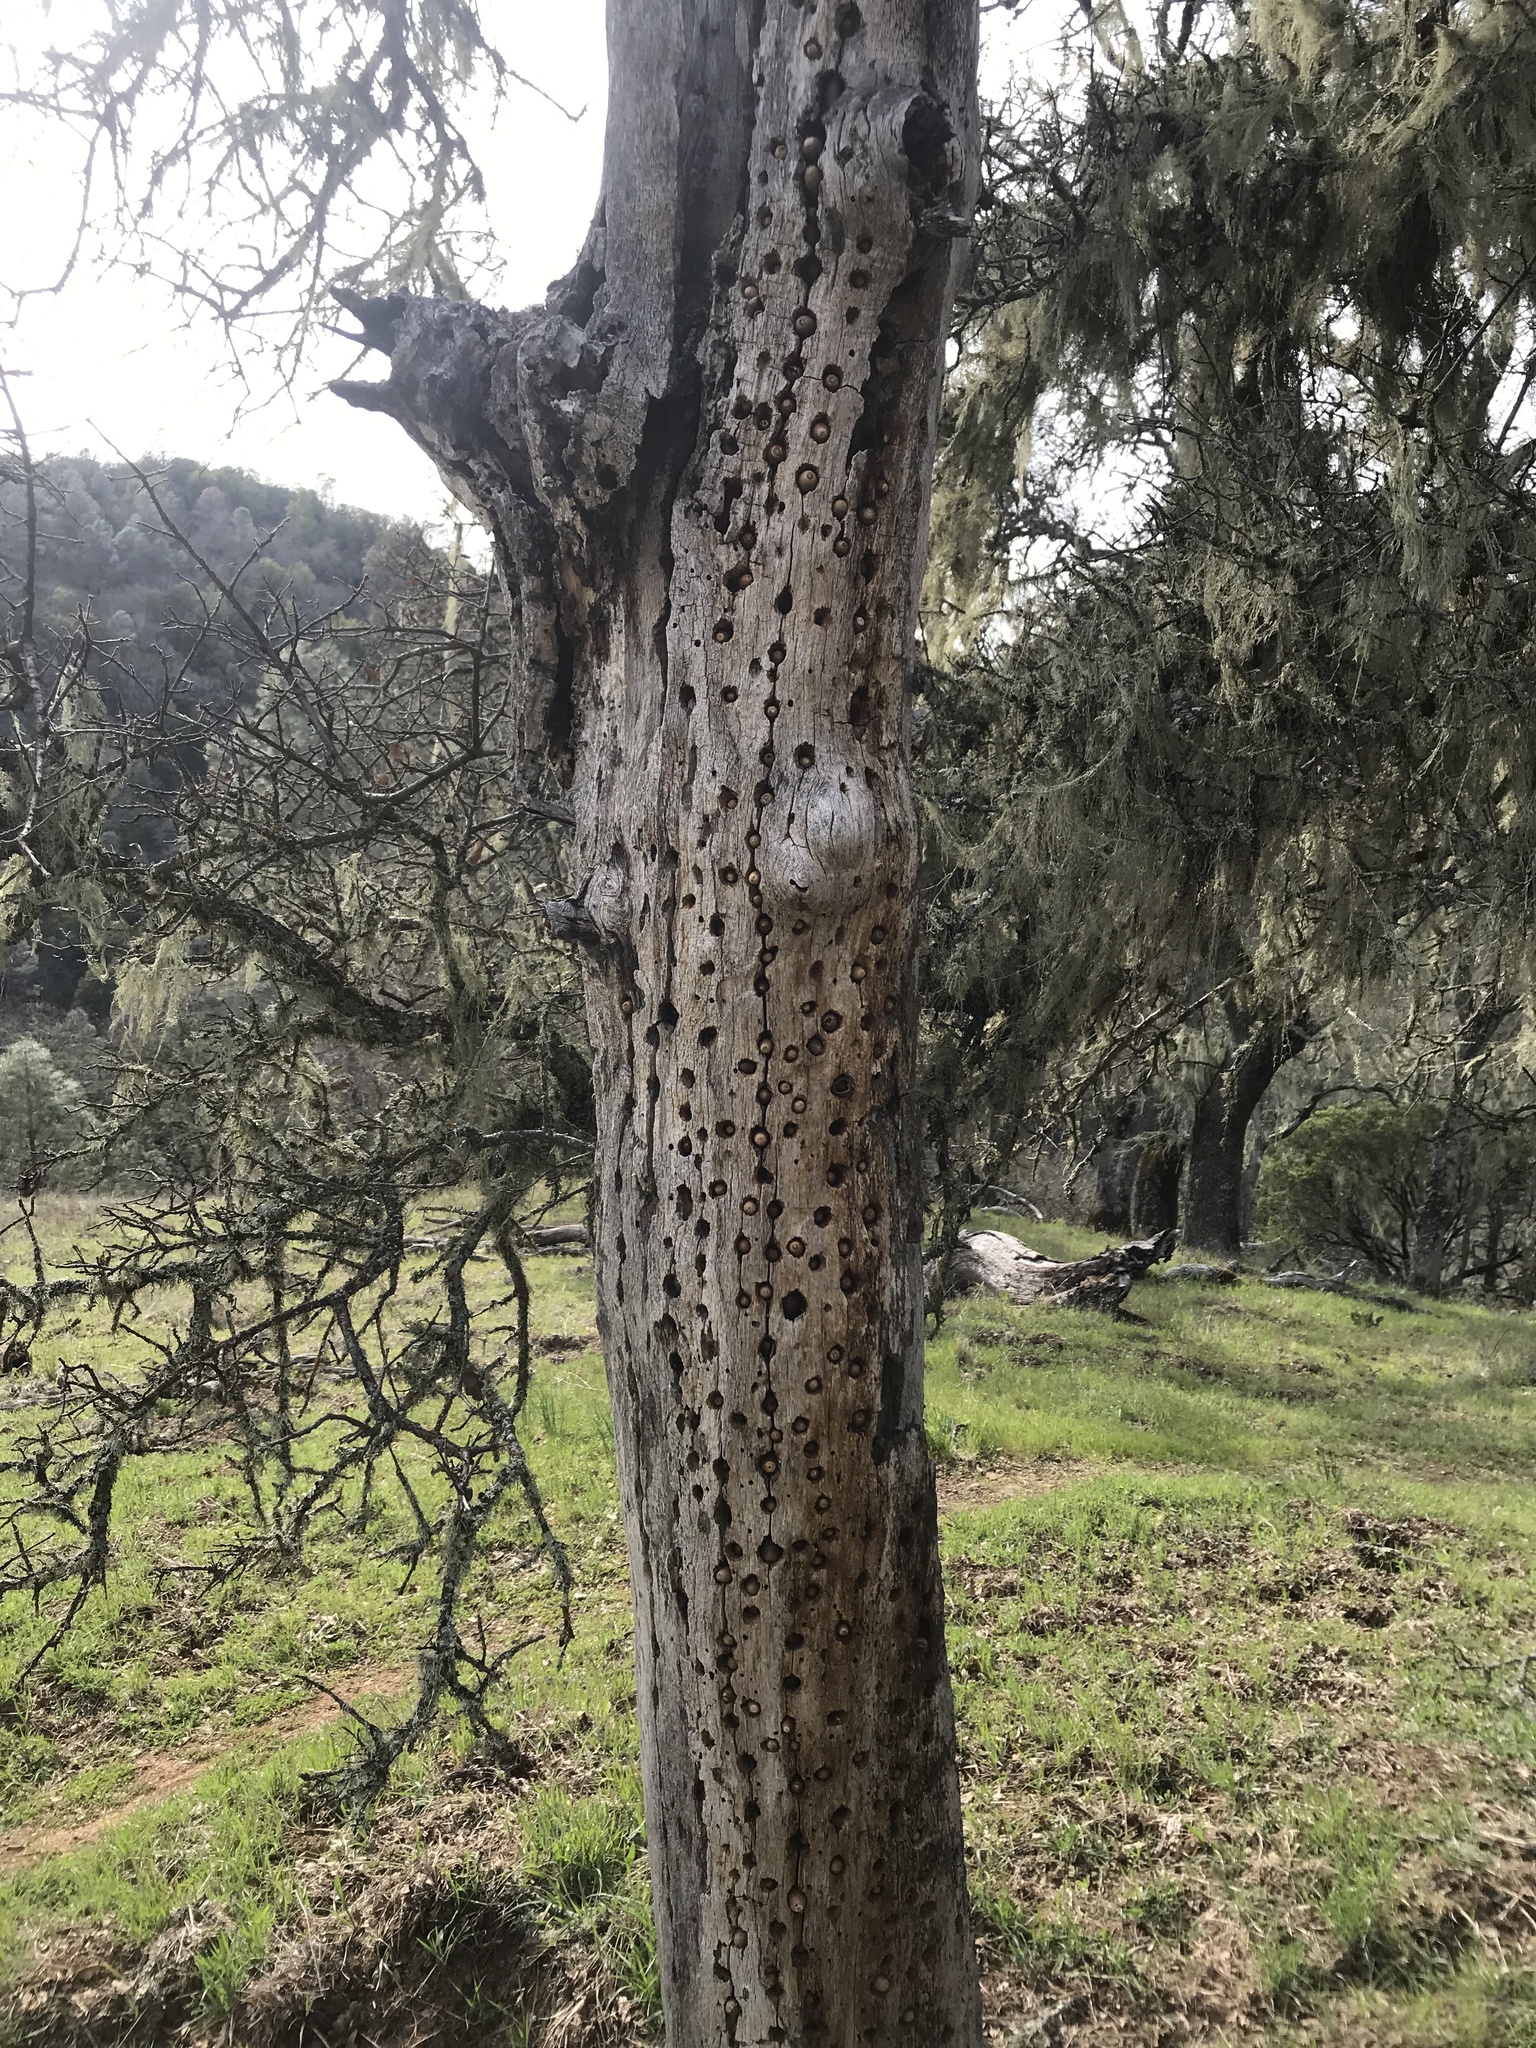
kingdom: Animalia
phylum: Chordata
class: Aves
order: Piciformes
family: Picidae
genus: Melanerpes
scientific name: Melanerpes formicivorus
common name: Acorn woodpecker
